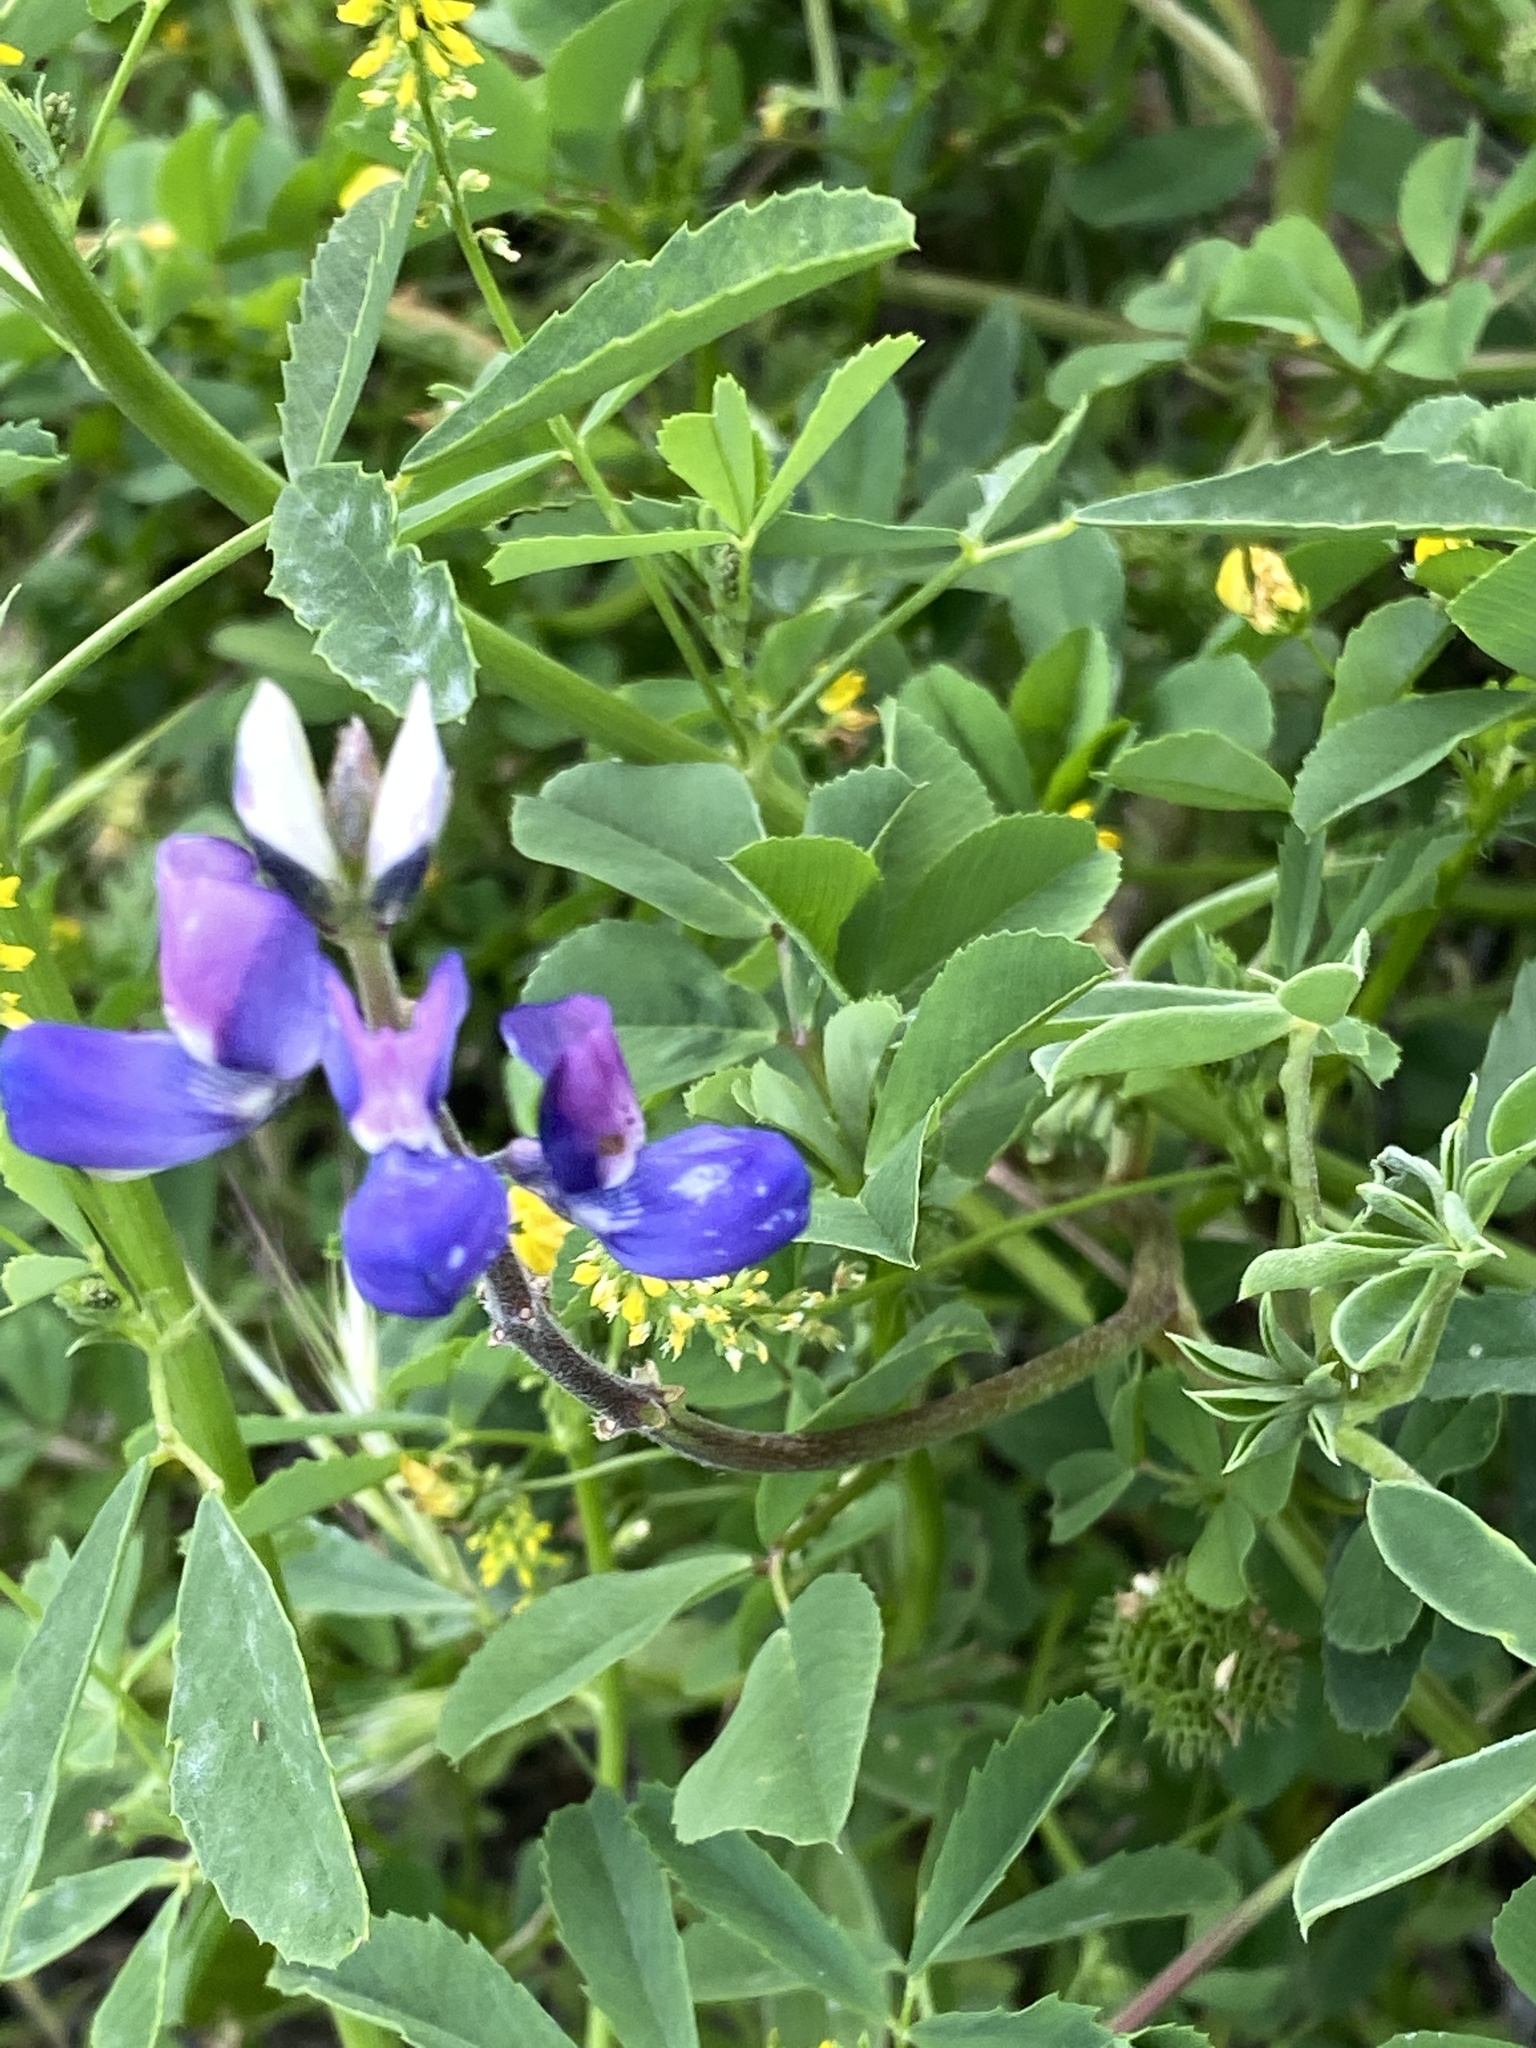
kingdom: Plantae
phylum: Tracheophyta
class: Magnoliopsida
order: Fabales
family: Fabaceae
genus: Lupinus
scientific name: Lupinus succulentus
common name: Arroyo lupine
